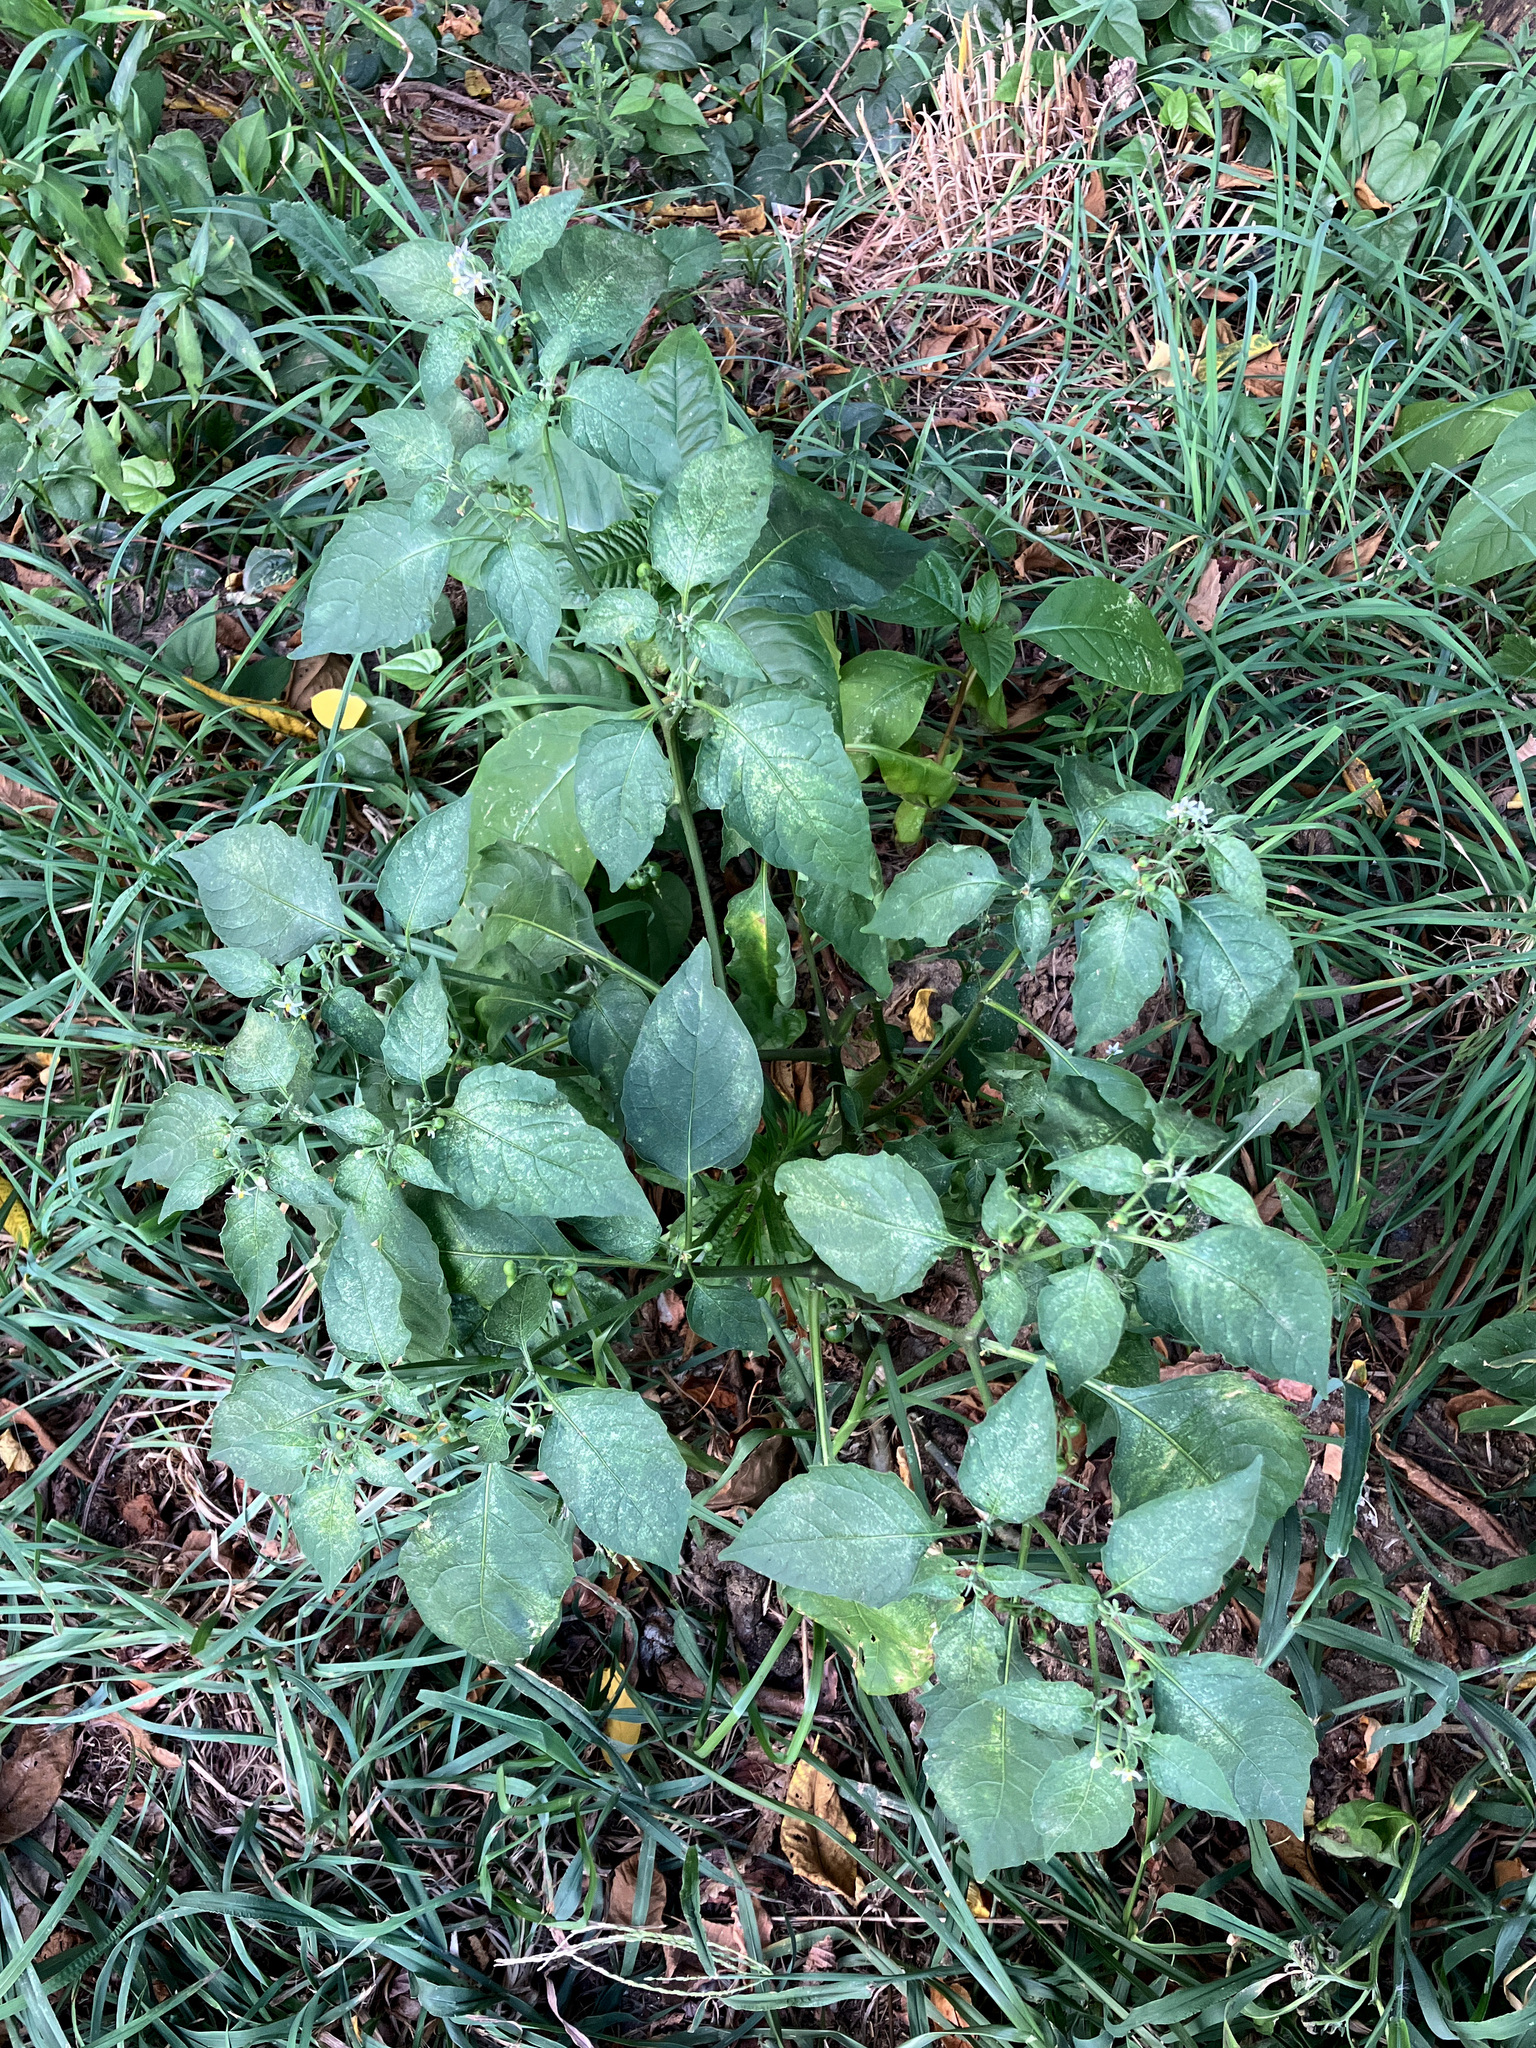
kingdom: Plantae
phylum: Tracheophyta
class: Magnoliopsida
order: Solanales
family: Solanaceae
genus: Solanum
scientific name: Solanum emulans
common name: Eastern black nightshade
